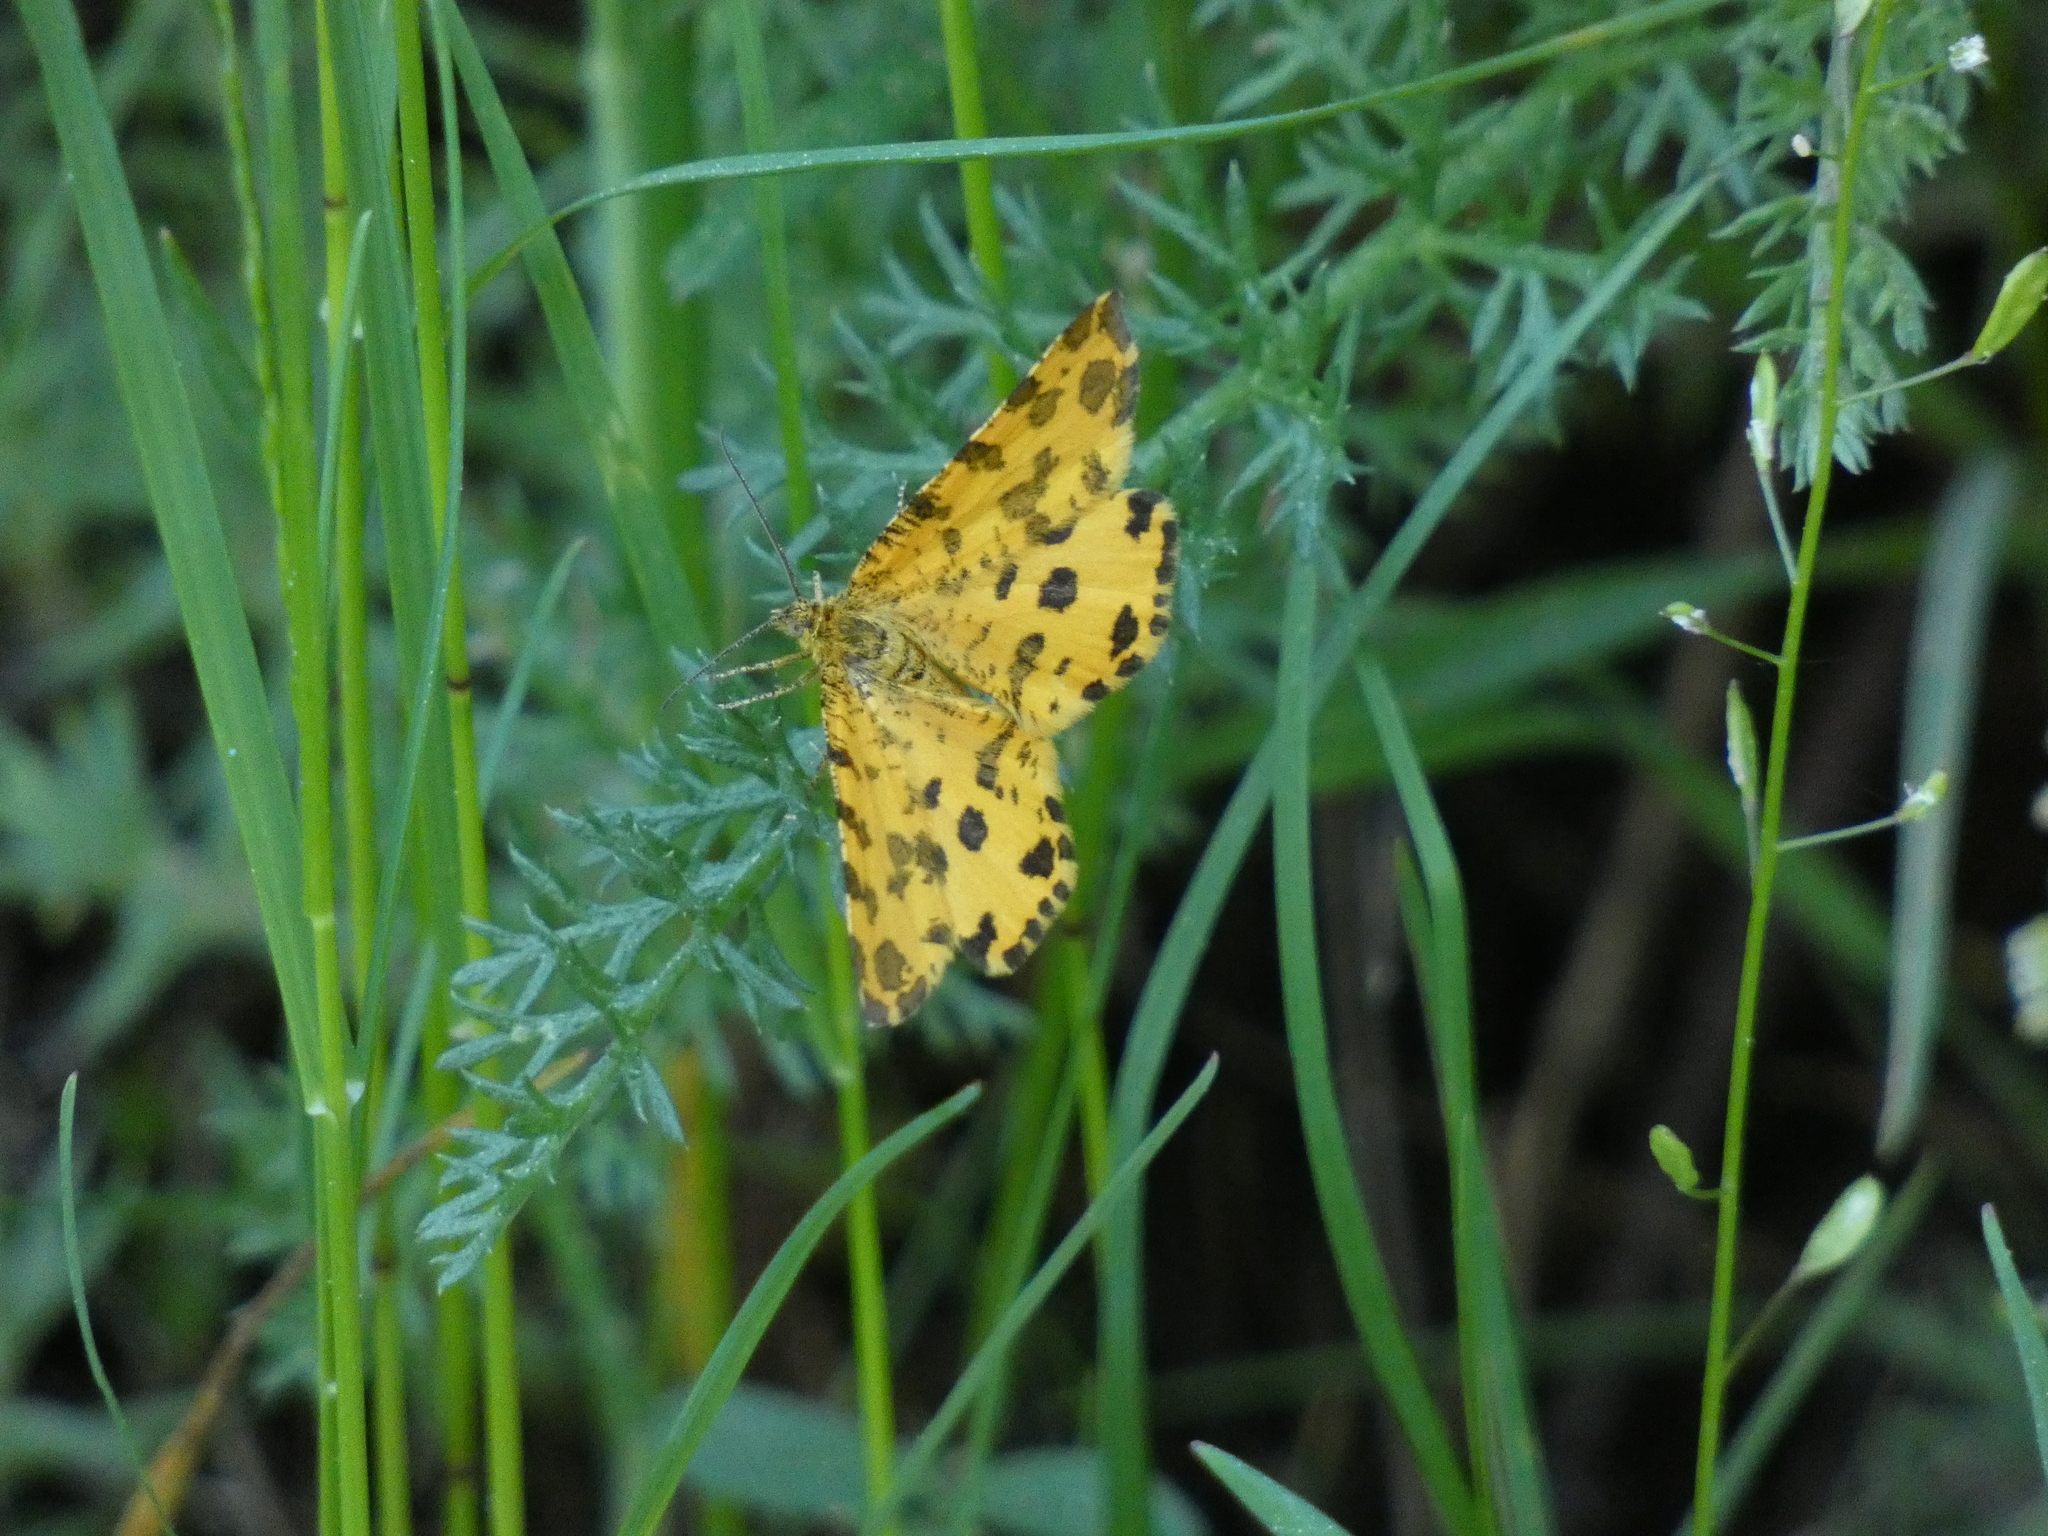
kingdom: Animalia
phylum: Arthropoda
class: Insecta
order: Lepidoptera
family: Geometridae
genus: Pseudopanthera
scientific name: Pseudopanthera macularia
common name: Speckled yellow
